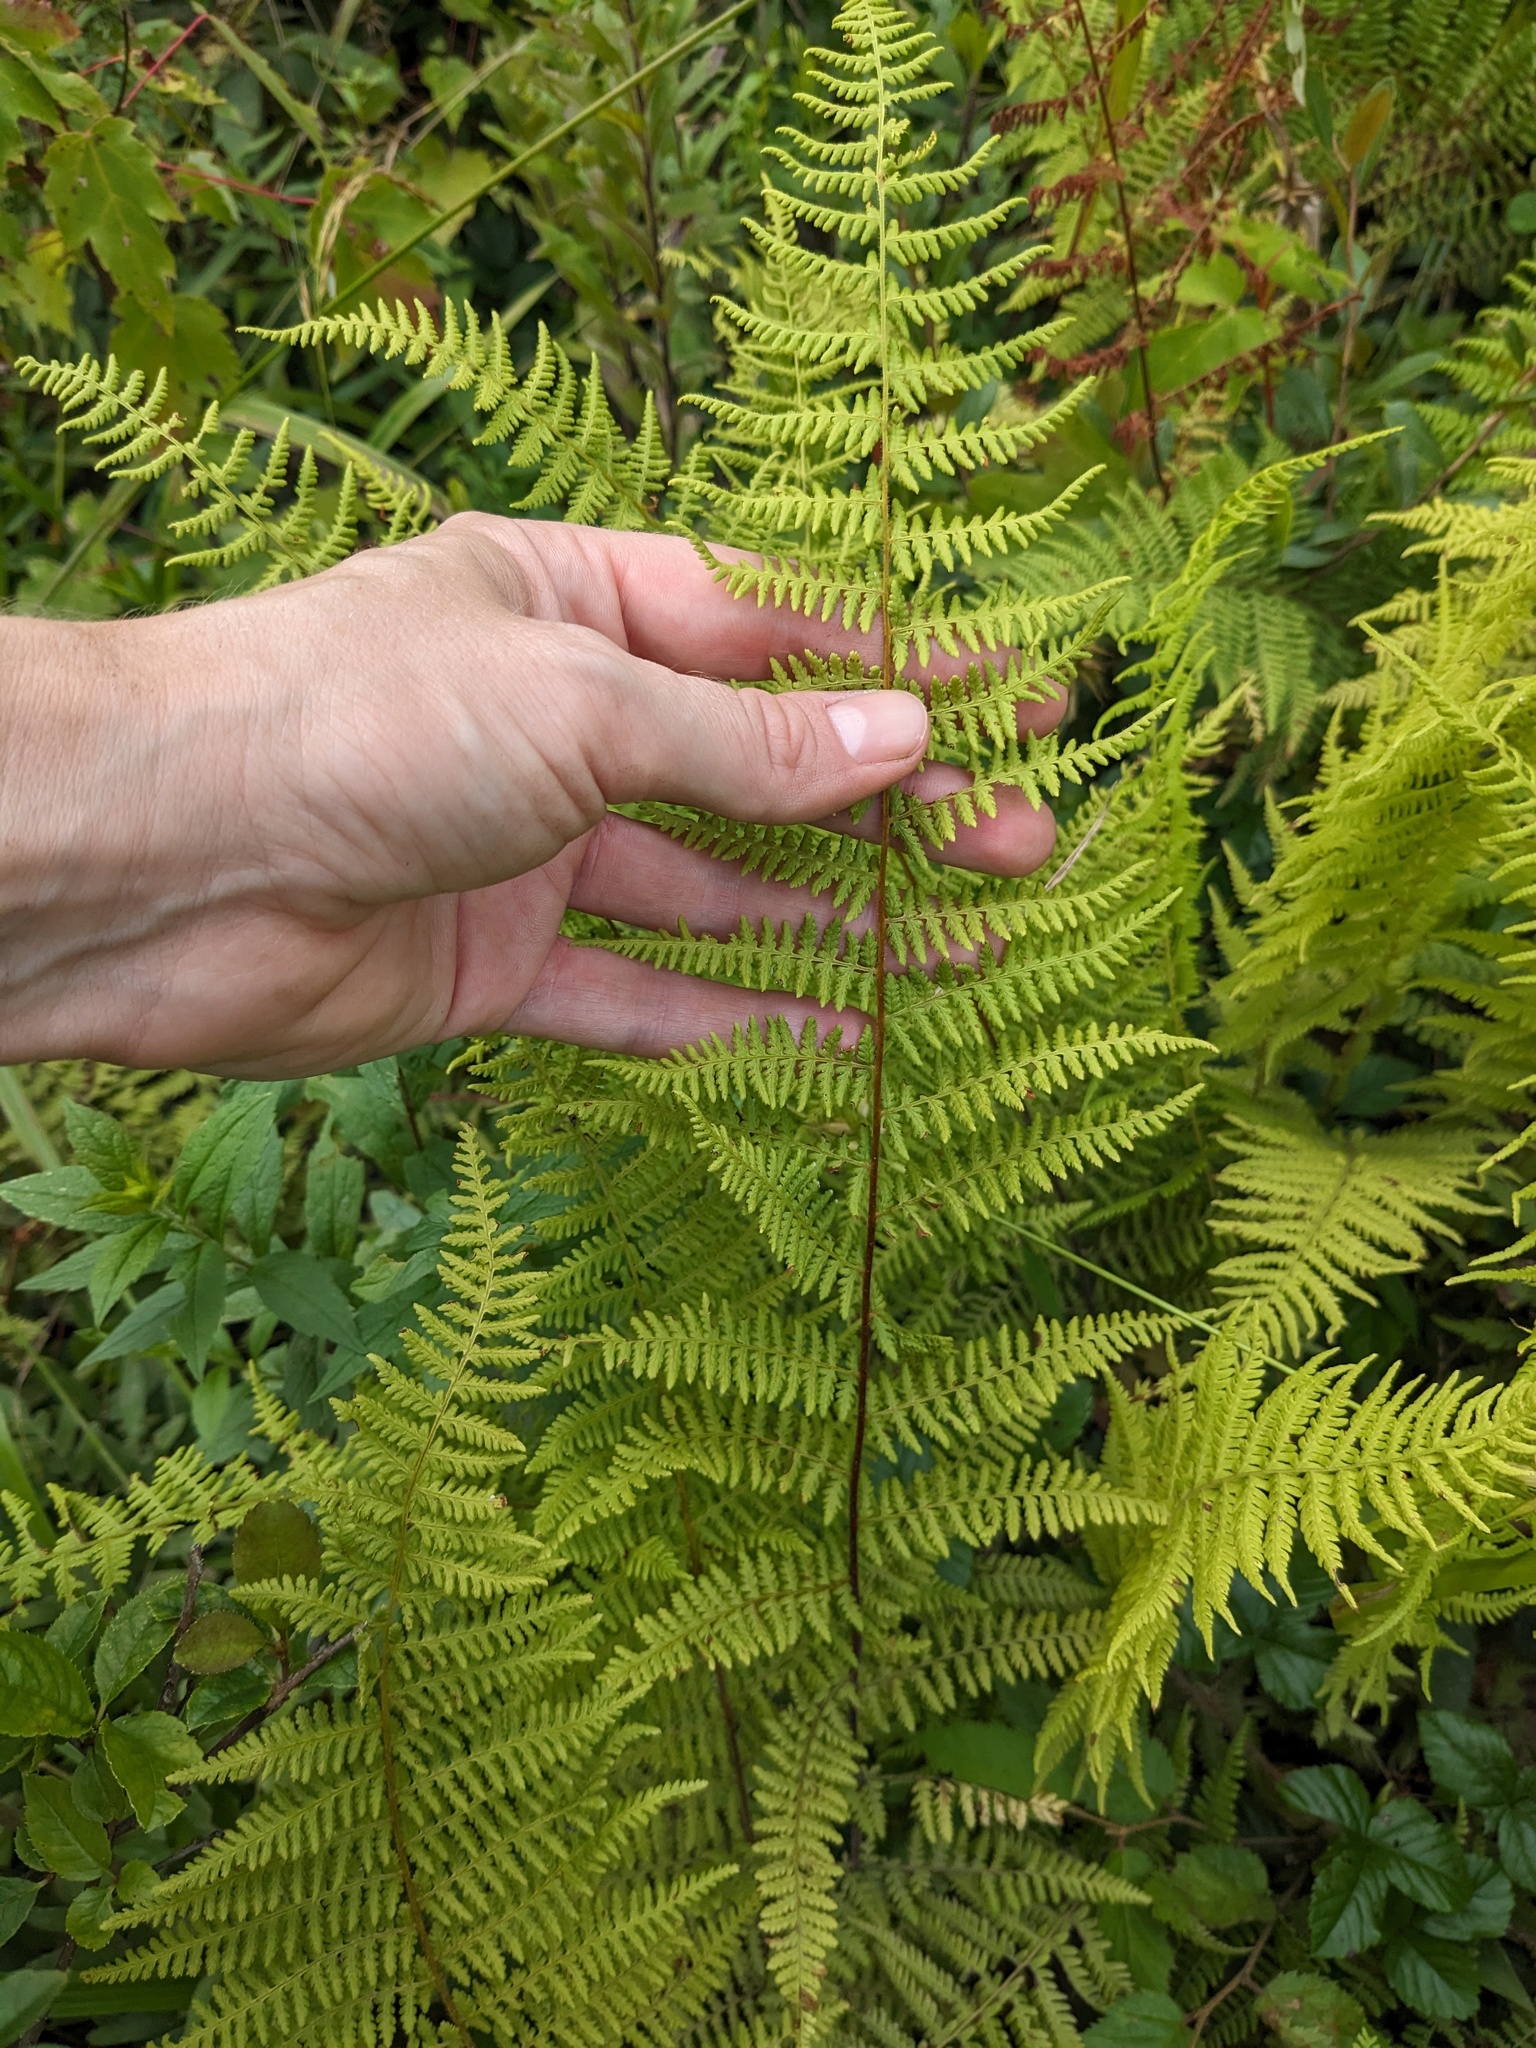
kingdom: Plantae
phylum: Tracheophyta
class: Polypodiopsida
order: Polypodiales
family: Dennstaedtiaceae
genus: Sitobolium
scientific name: Sitobolium punctilobum
